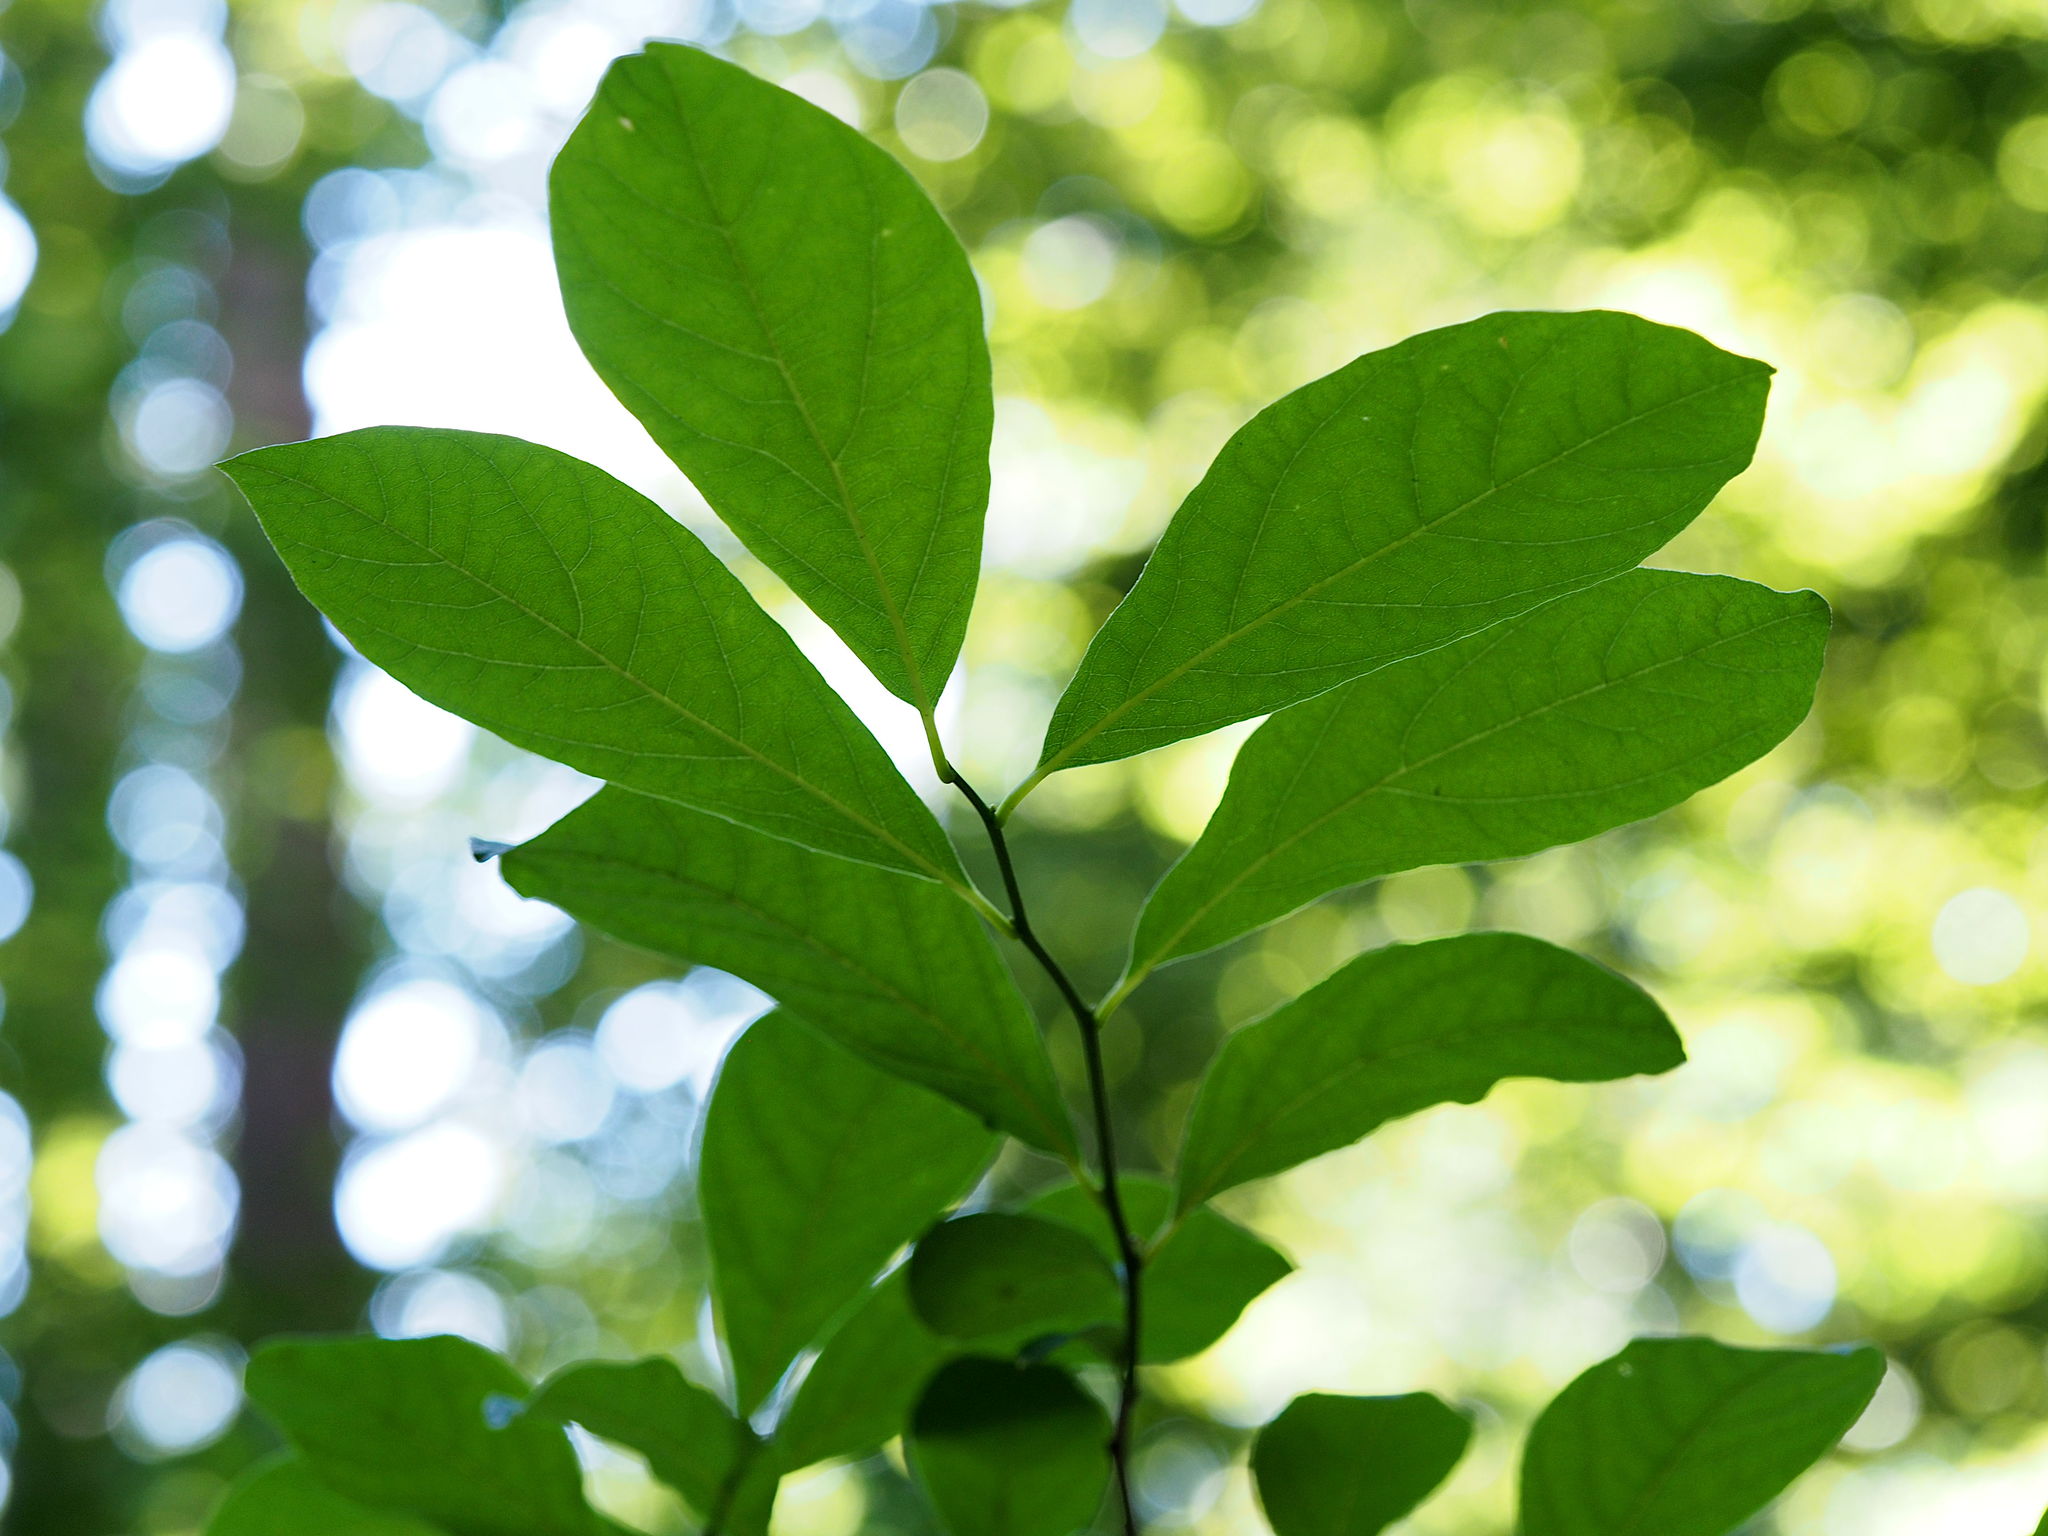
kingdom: Plantae
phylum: Tracheophyta
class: Magnoliopsida
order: Laurales
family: Lauraceae
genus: Lindera
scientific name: Lindera benzoin
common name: Spicebush
